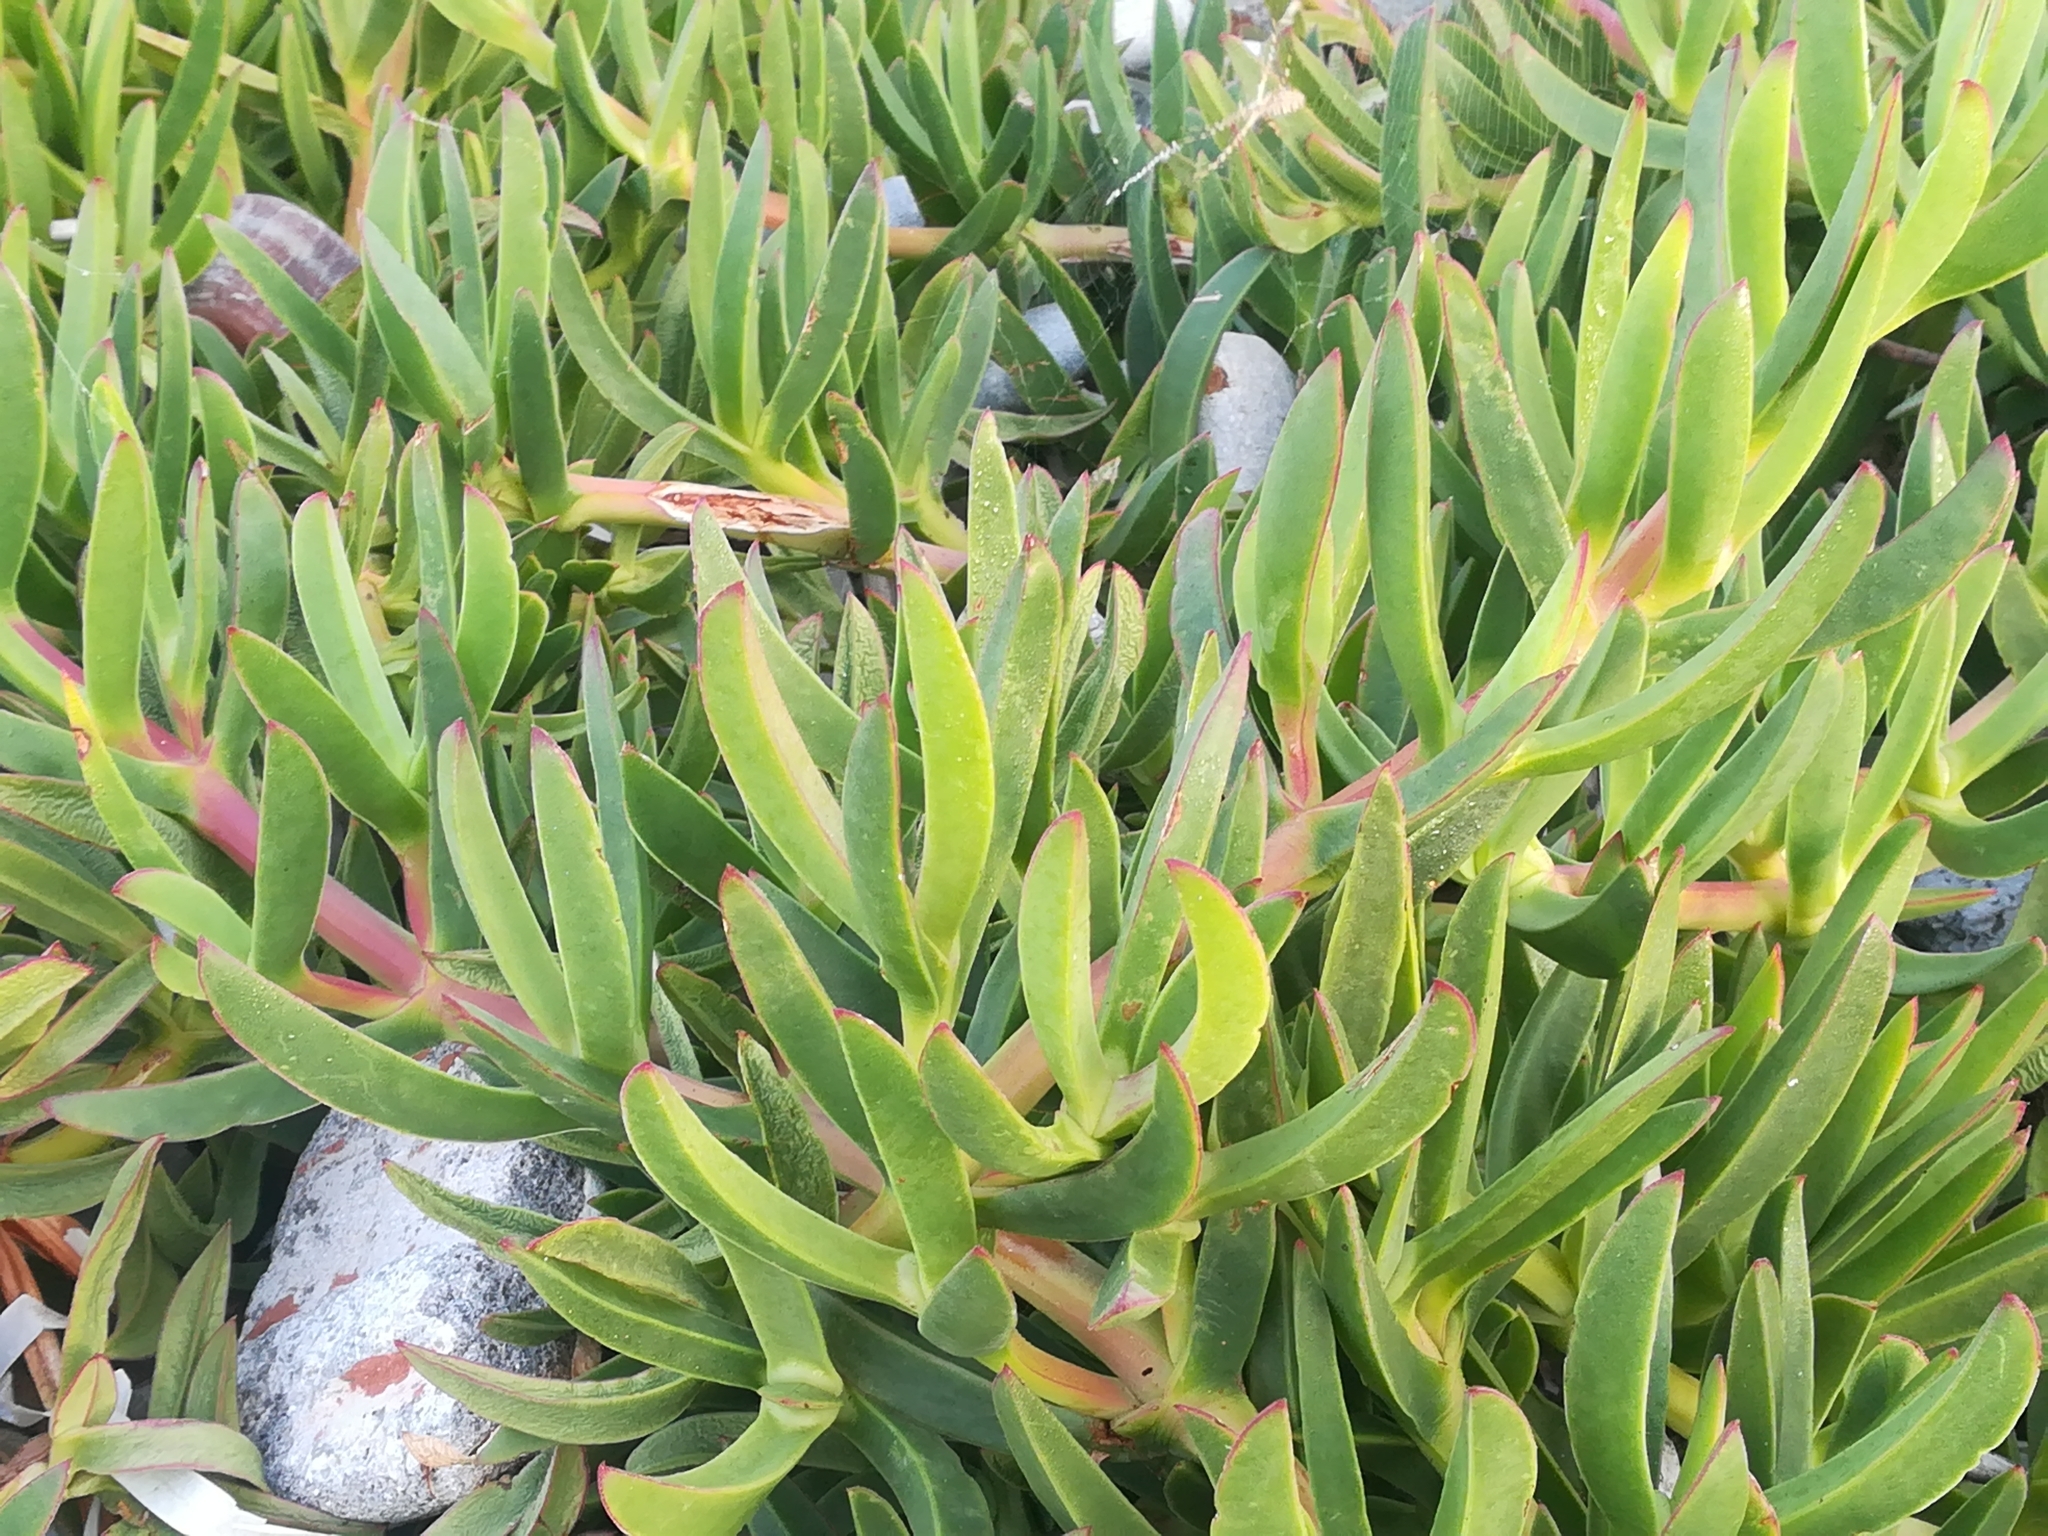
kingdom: Plantae
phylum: Tracheophyta
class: Magnoliopsida
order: Caryophyllales
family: Aizoaceae
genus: Carpobrotus
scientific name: Carpobrotus acinaciformis
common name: Sally-my-handsome
